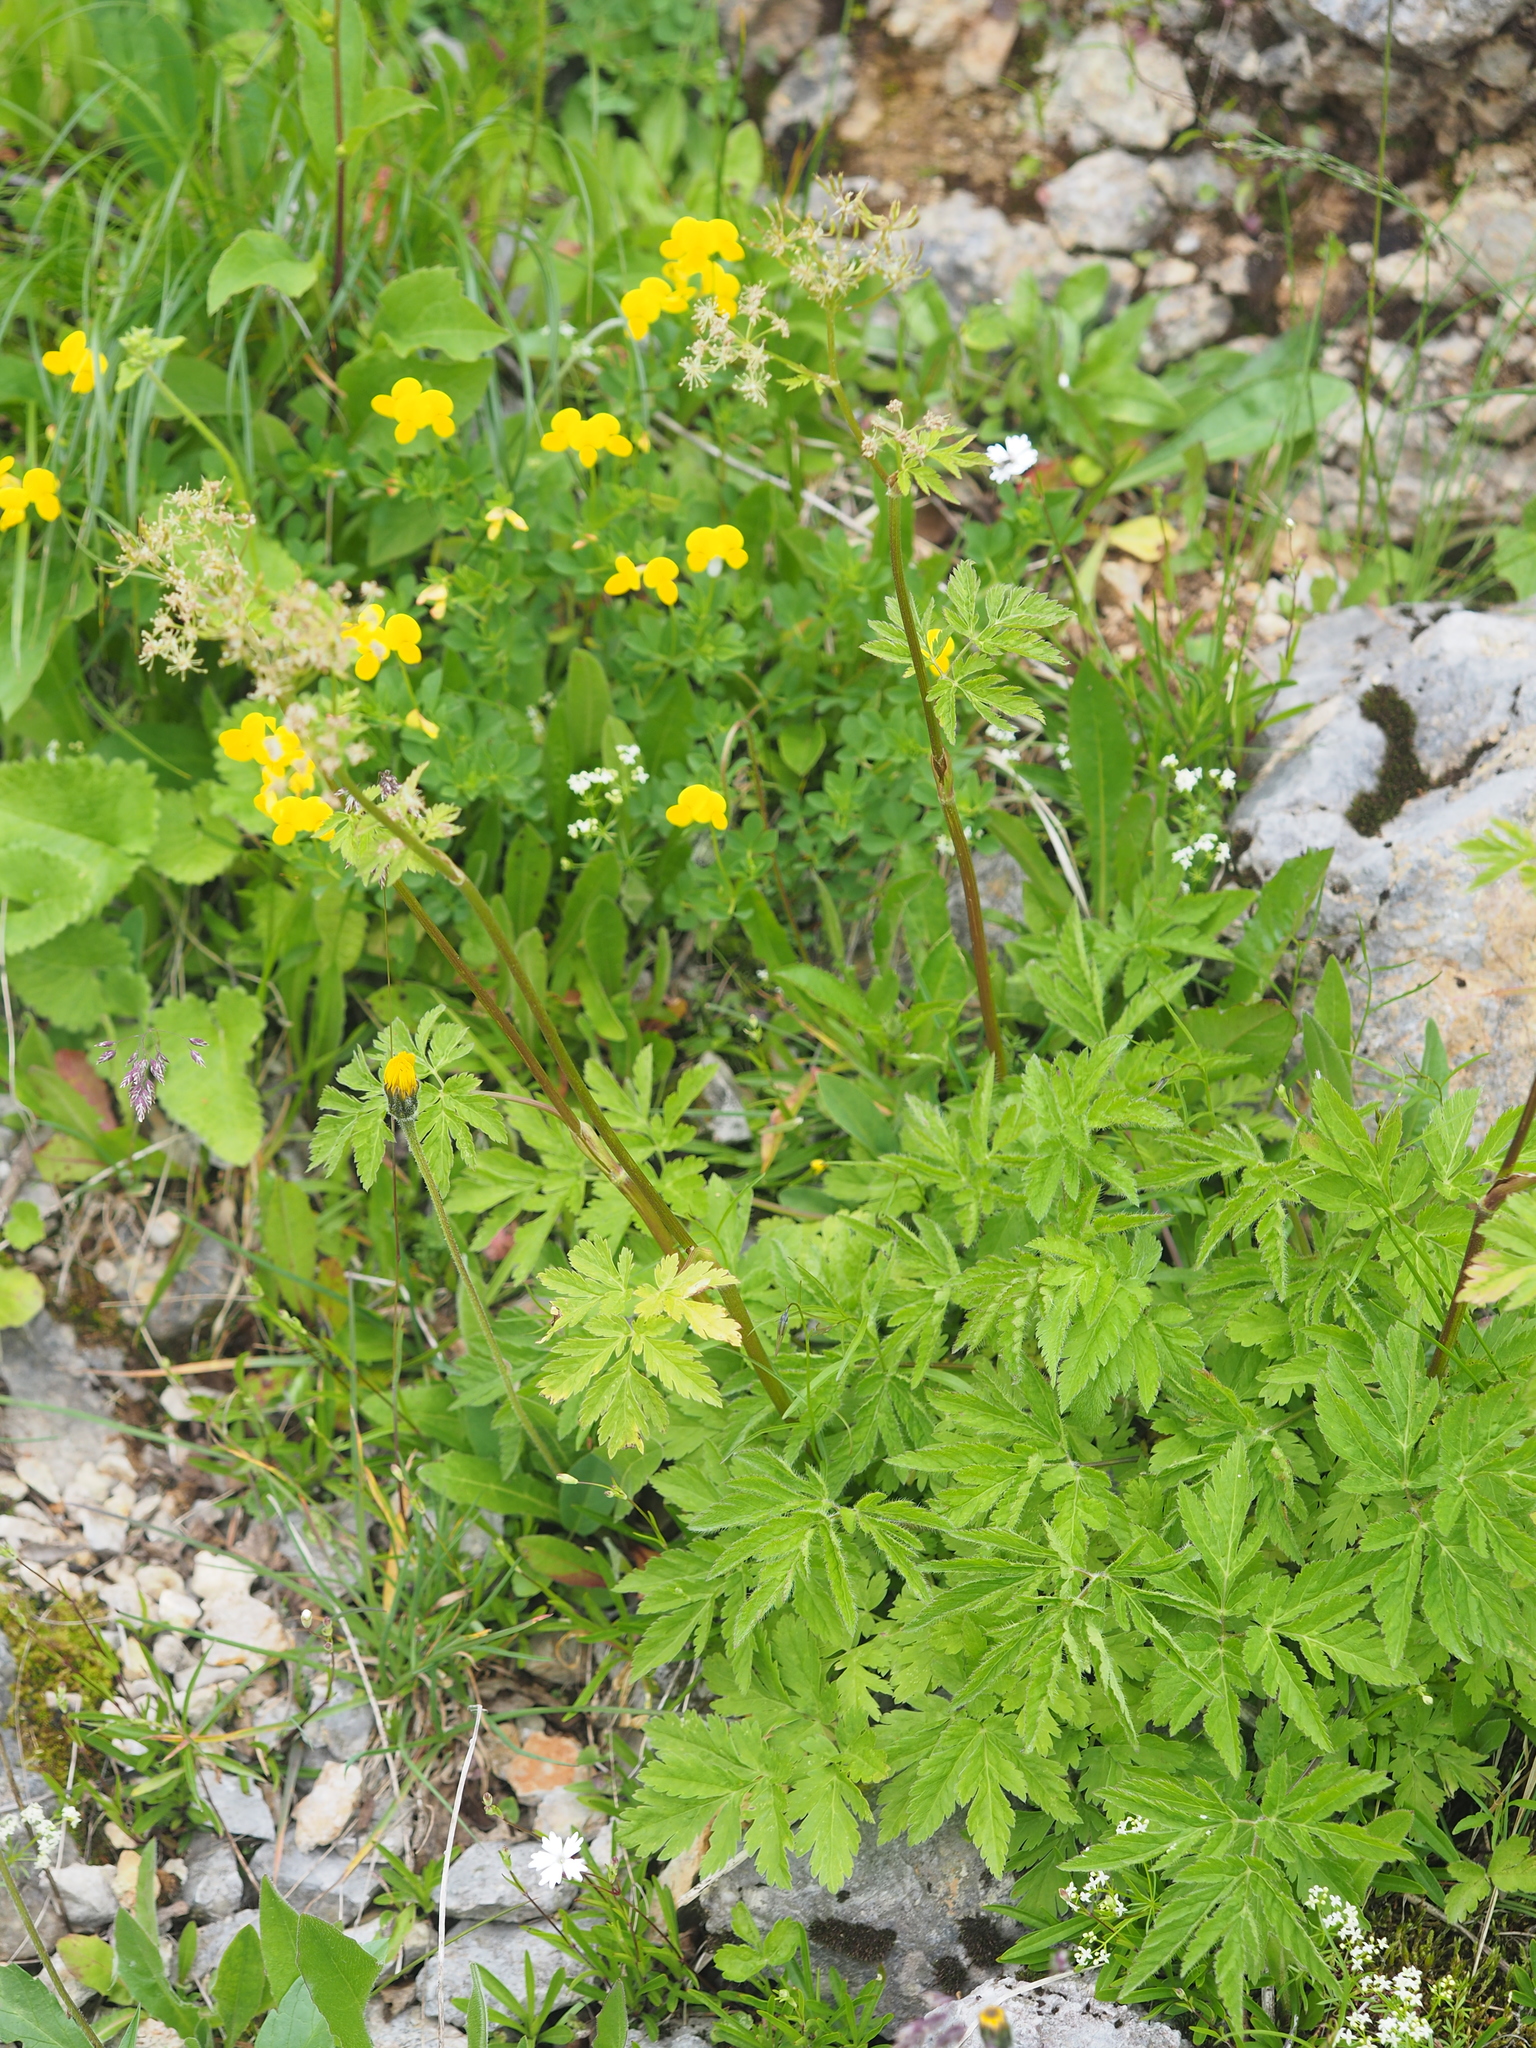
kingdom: Plantae
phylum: Tracheophyta
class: Magnoliopsida
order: Apiales
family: Apiaceae
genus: Chaerophyllum
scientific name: Chaerophyllum hirsutum
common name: Hairy chervil
